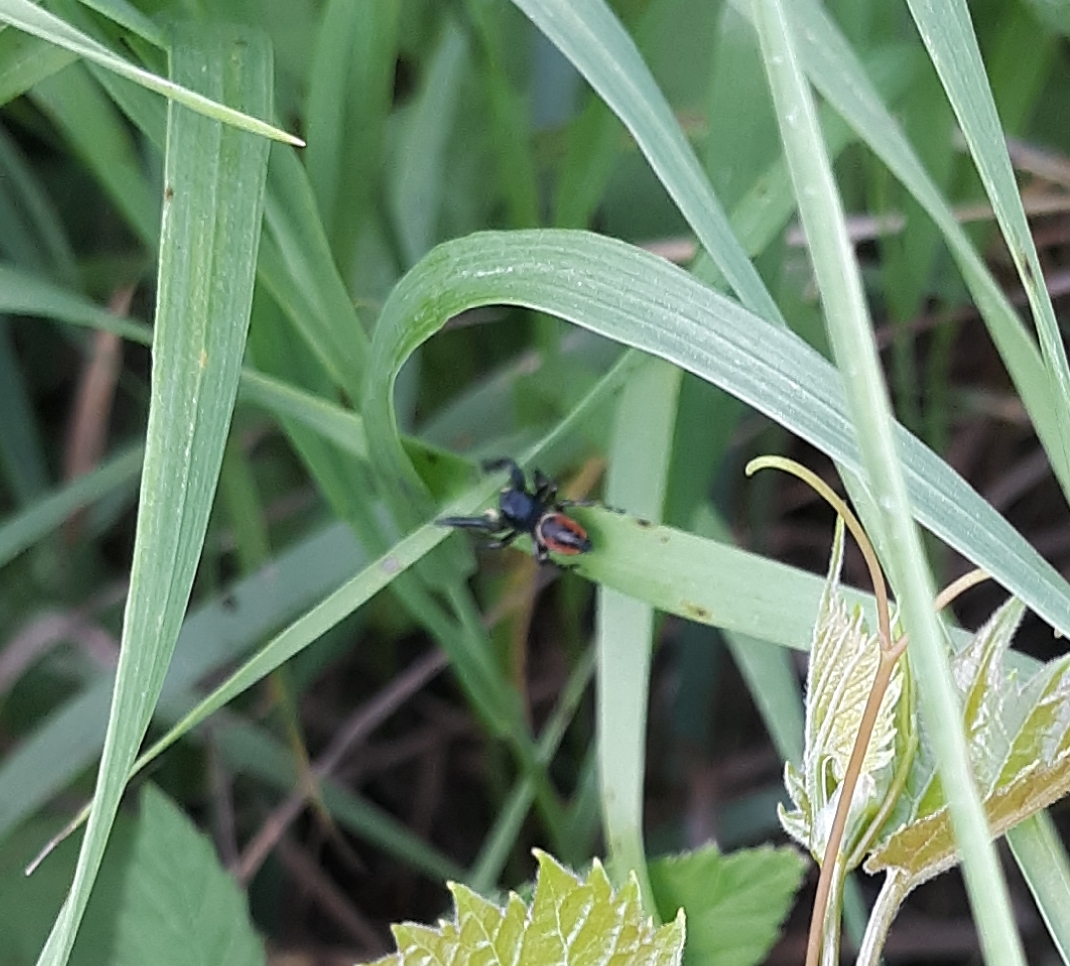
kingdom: Animalia
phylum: Arthropoda
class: Arachnida
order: Araneae
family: Salticidae
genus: Phidippus
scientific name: Phidippus clarus
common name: Brilliant jumping spider
